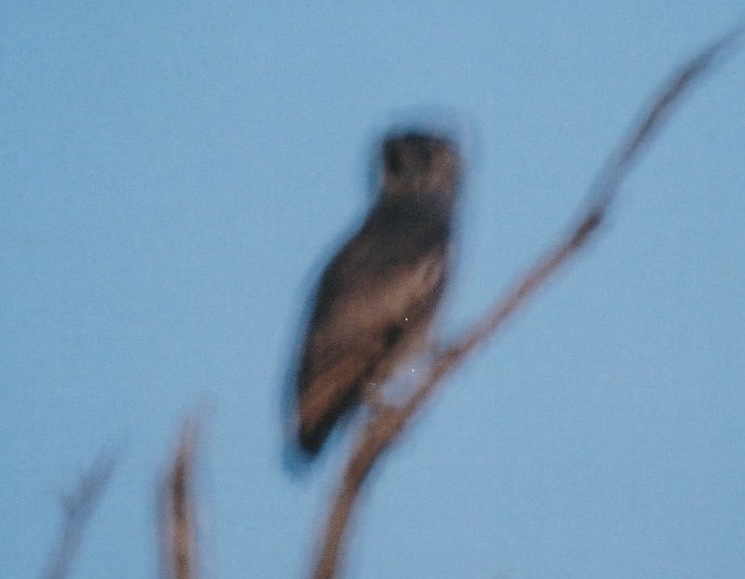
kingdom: Animalia
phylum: Chordata
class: Aves
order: Strigiformes
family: Strigidae
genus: Bubo
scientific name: Bubo lacteus
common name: Verreaux's eagle-owl
